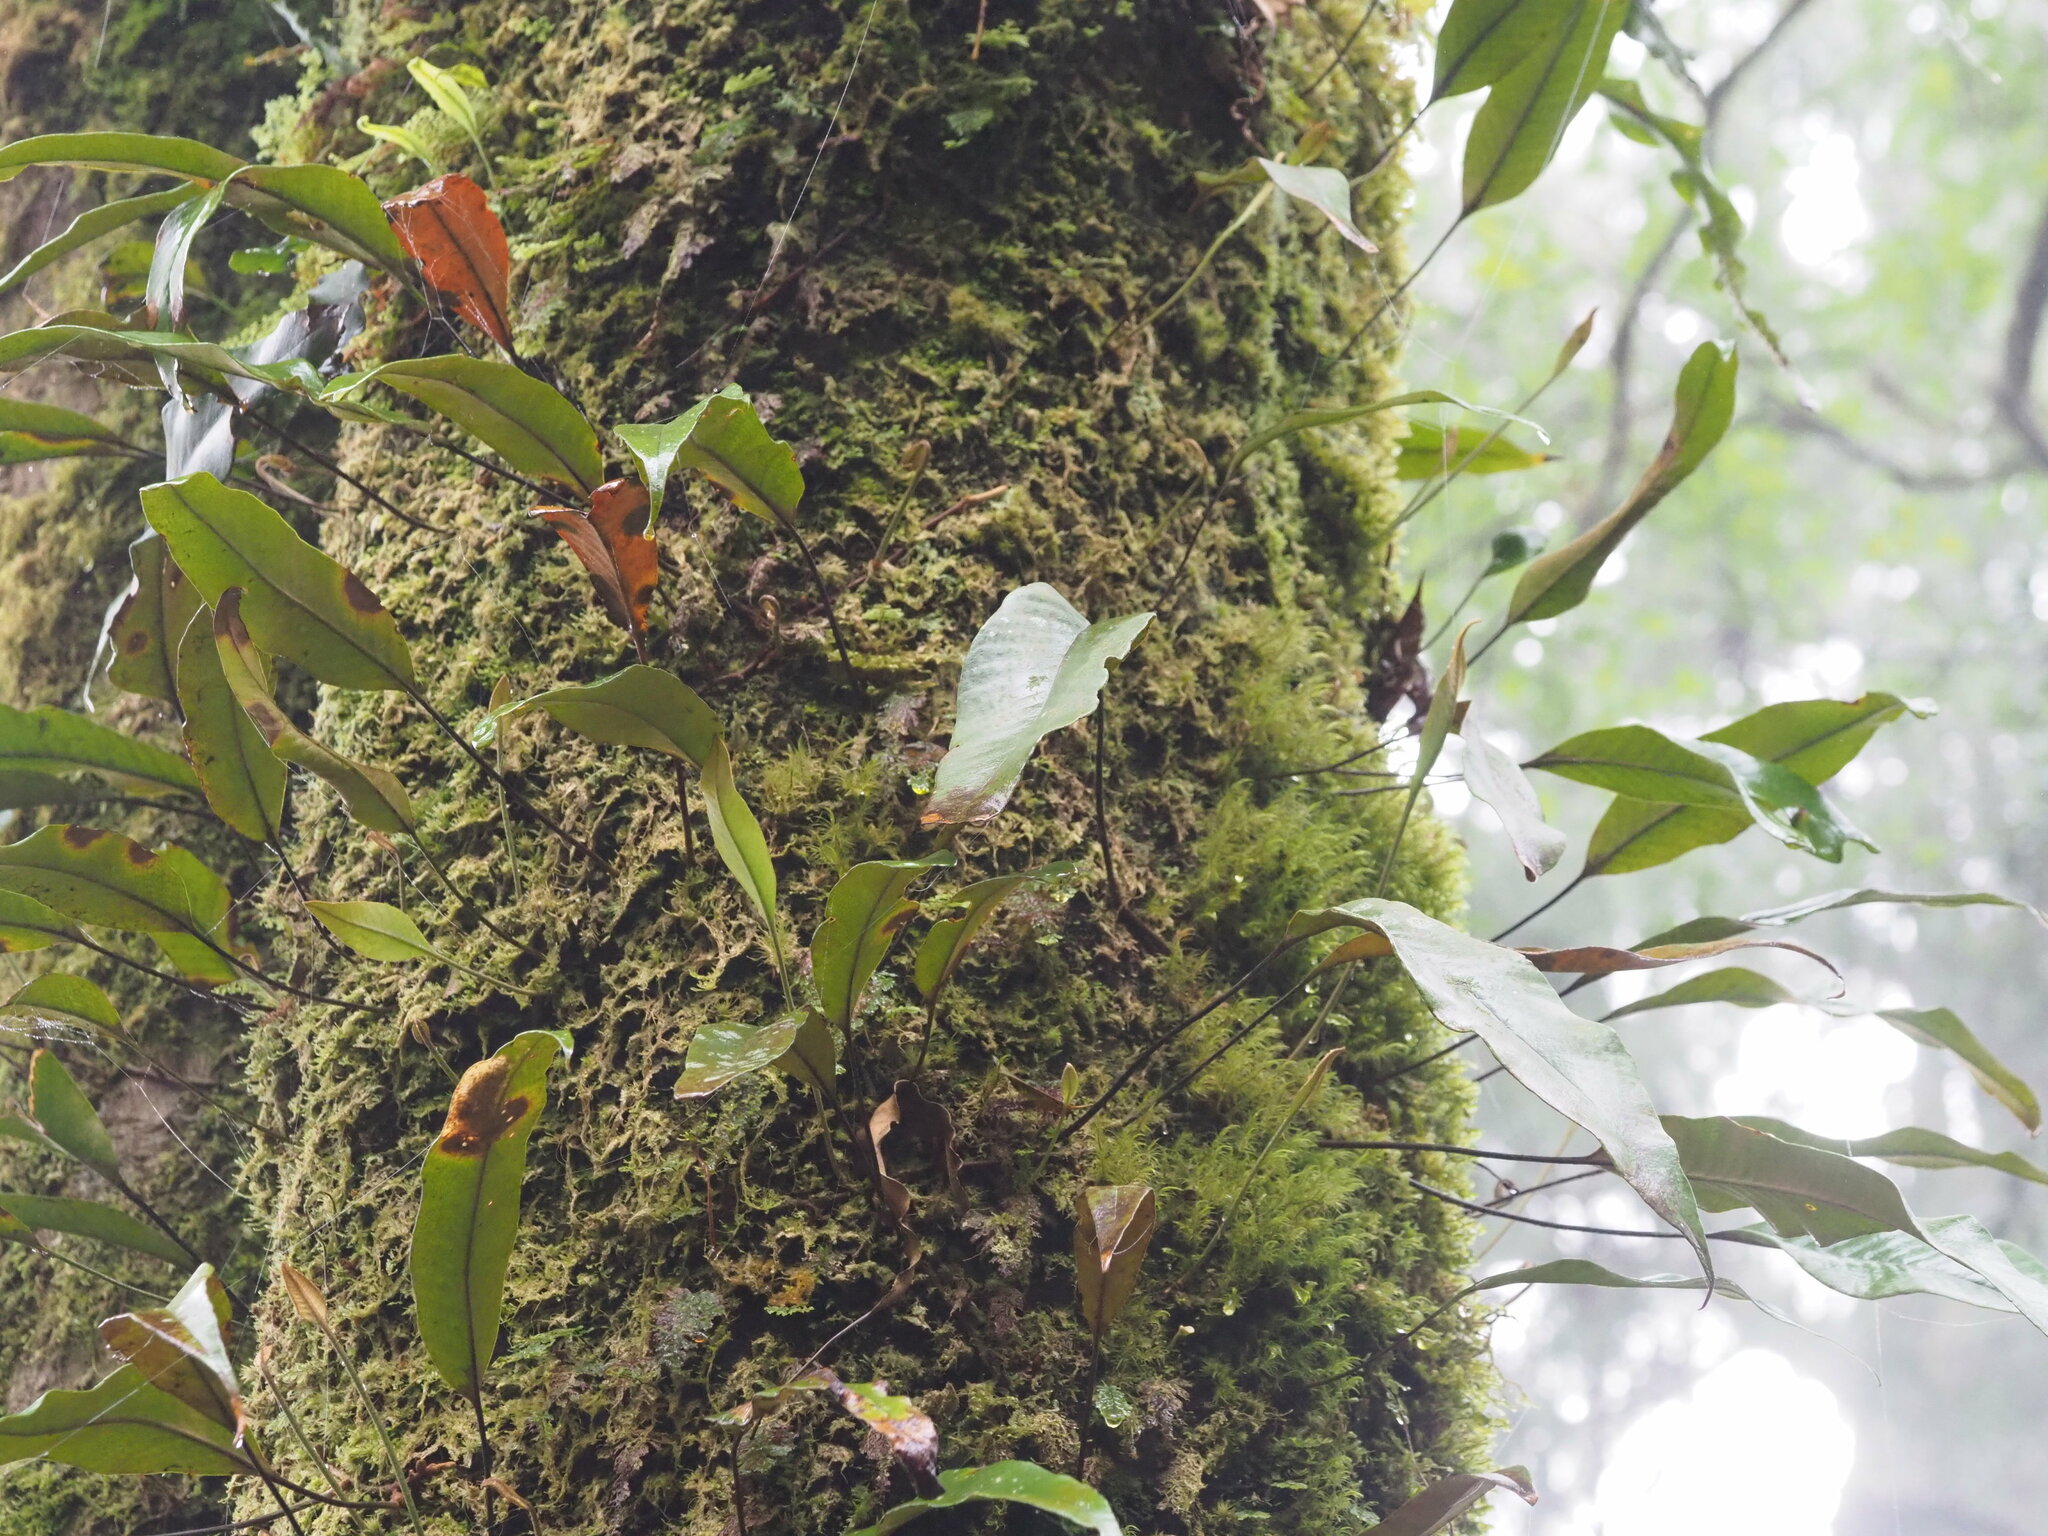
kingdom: Plantae
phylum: Tracheophyta
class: Polypodiopsida
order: Polypodiales
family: Polypodiaceae
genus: Pyrrosia
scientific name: Pyrrosia lingua
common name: Felt fern
